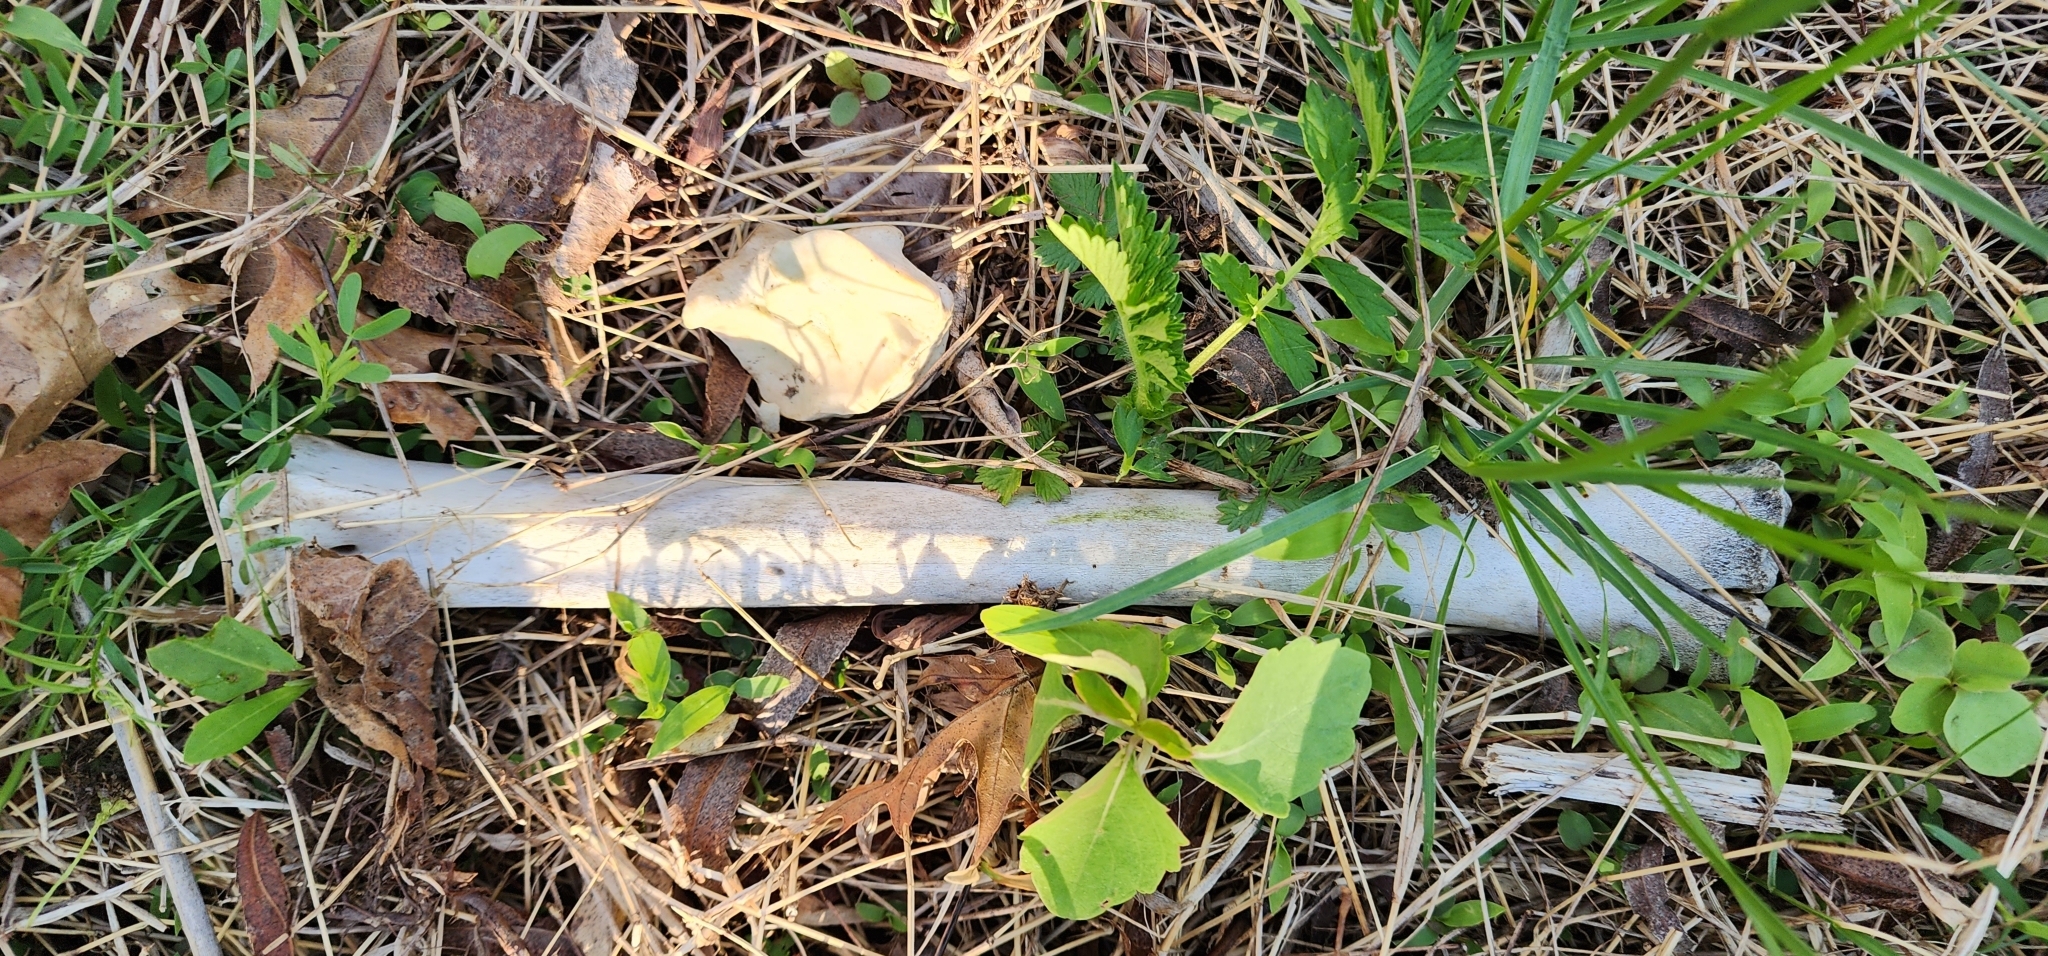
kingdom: Animalia
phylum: Chordata
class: Mammalia
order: Artiodactyla
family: Cervidae
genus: Odocoileus
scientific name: Odocoileus virginianus
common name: White-tailed deer
